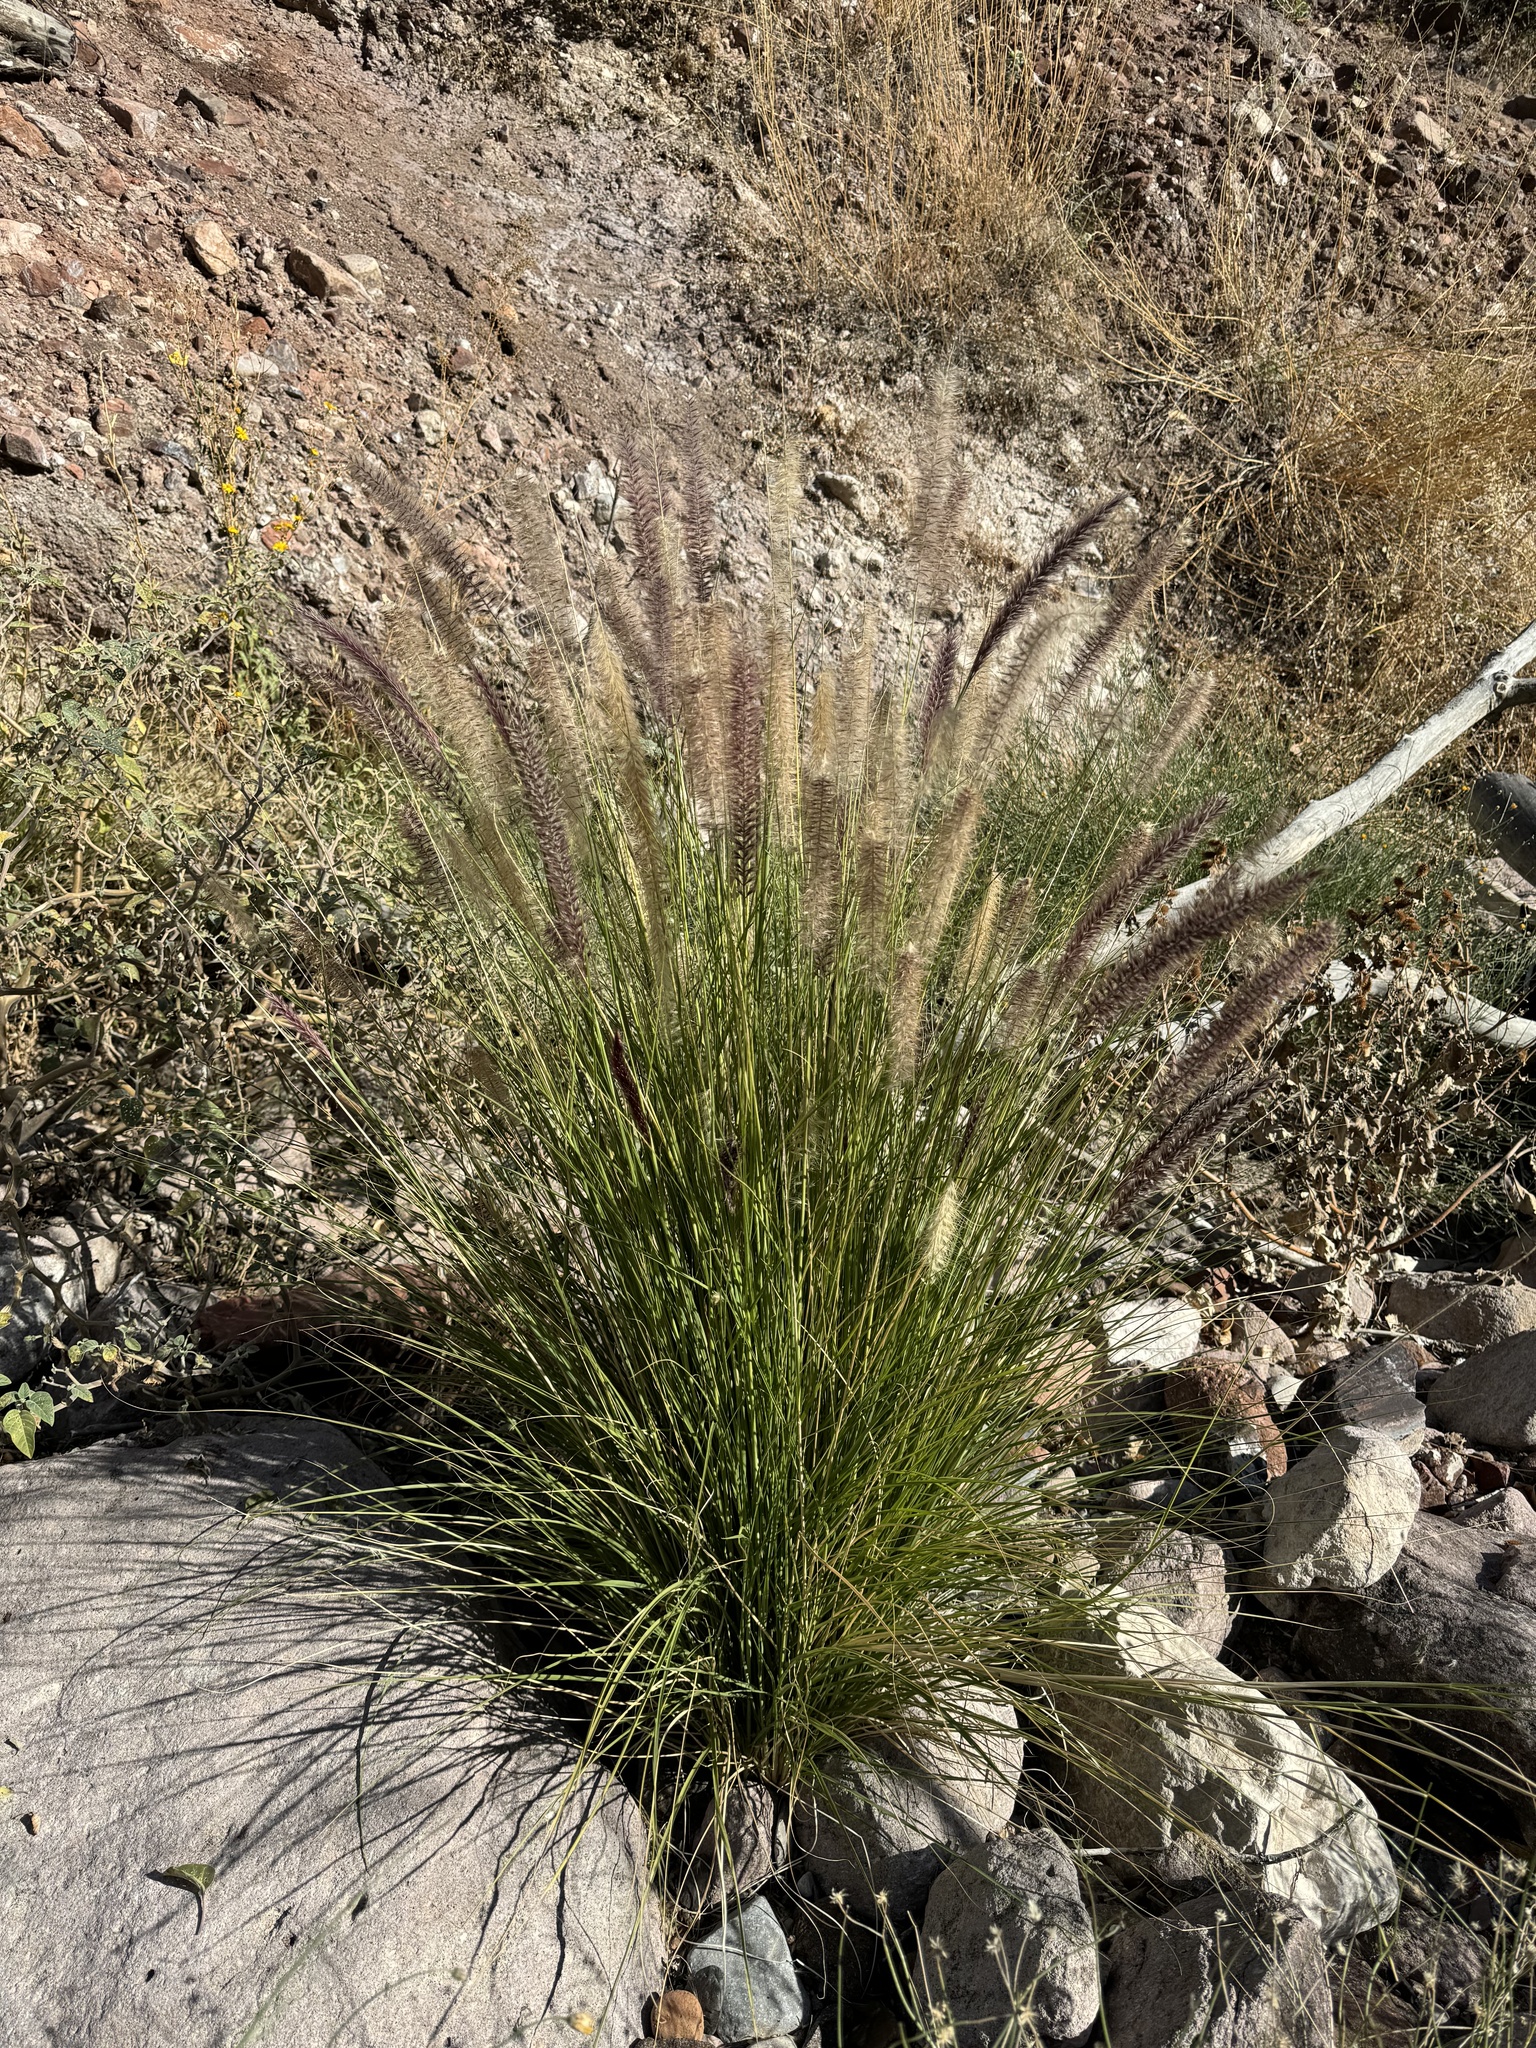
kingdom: Plantae
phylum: Tracheophyta
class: Liliopsida
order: Poales
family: Poaceae
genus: Cenchrus
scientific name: Cenchrus setaceus
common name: Crimson fountaingrass
